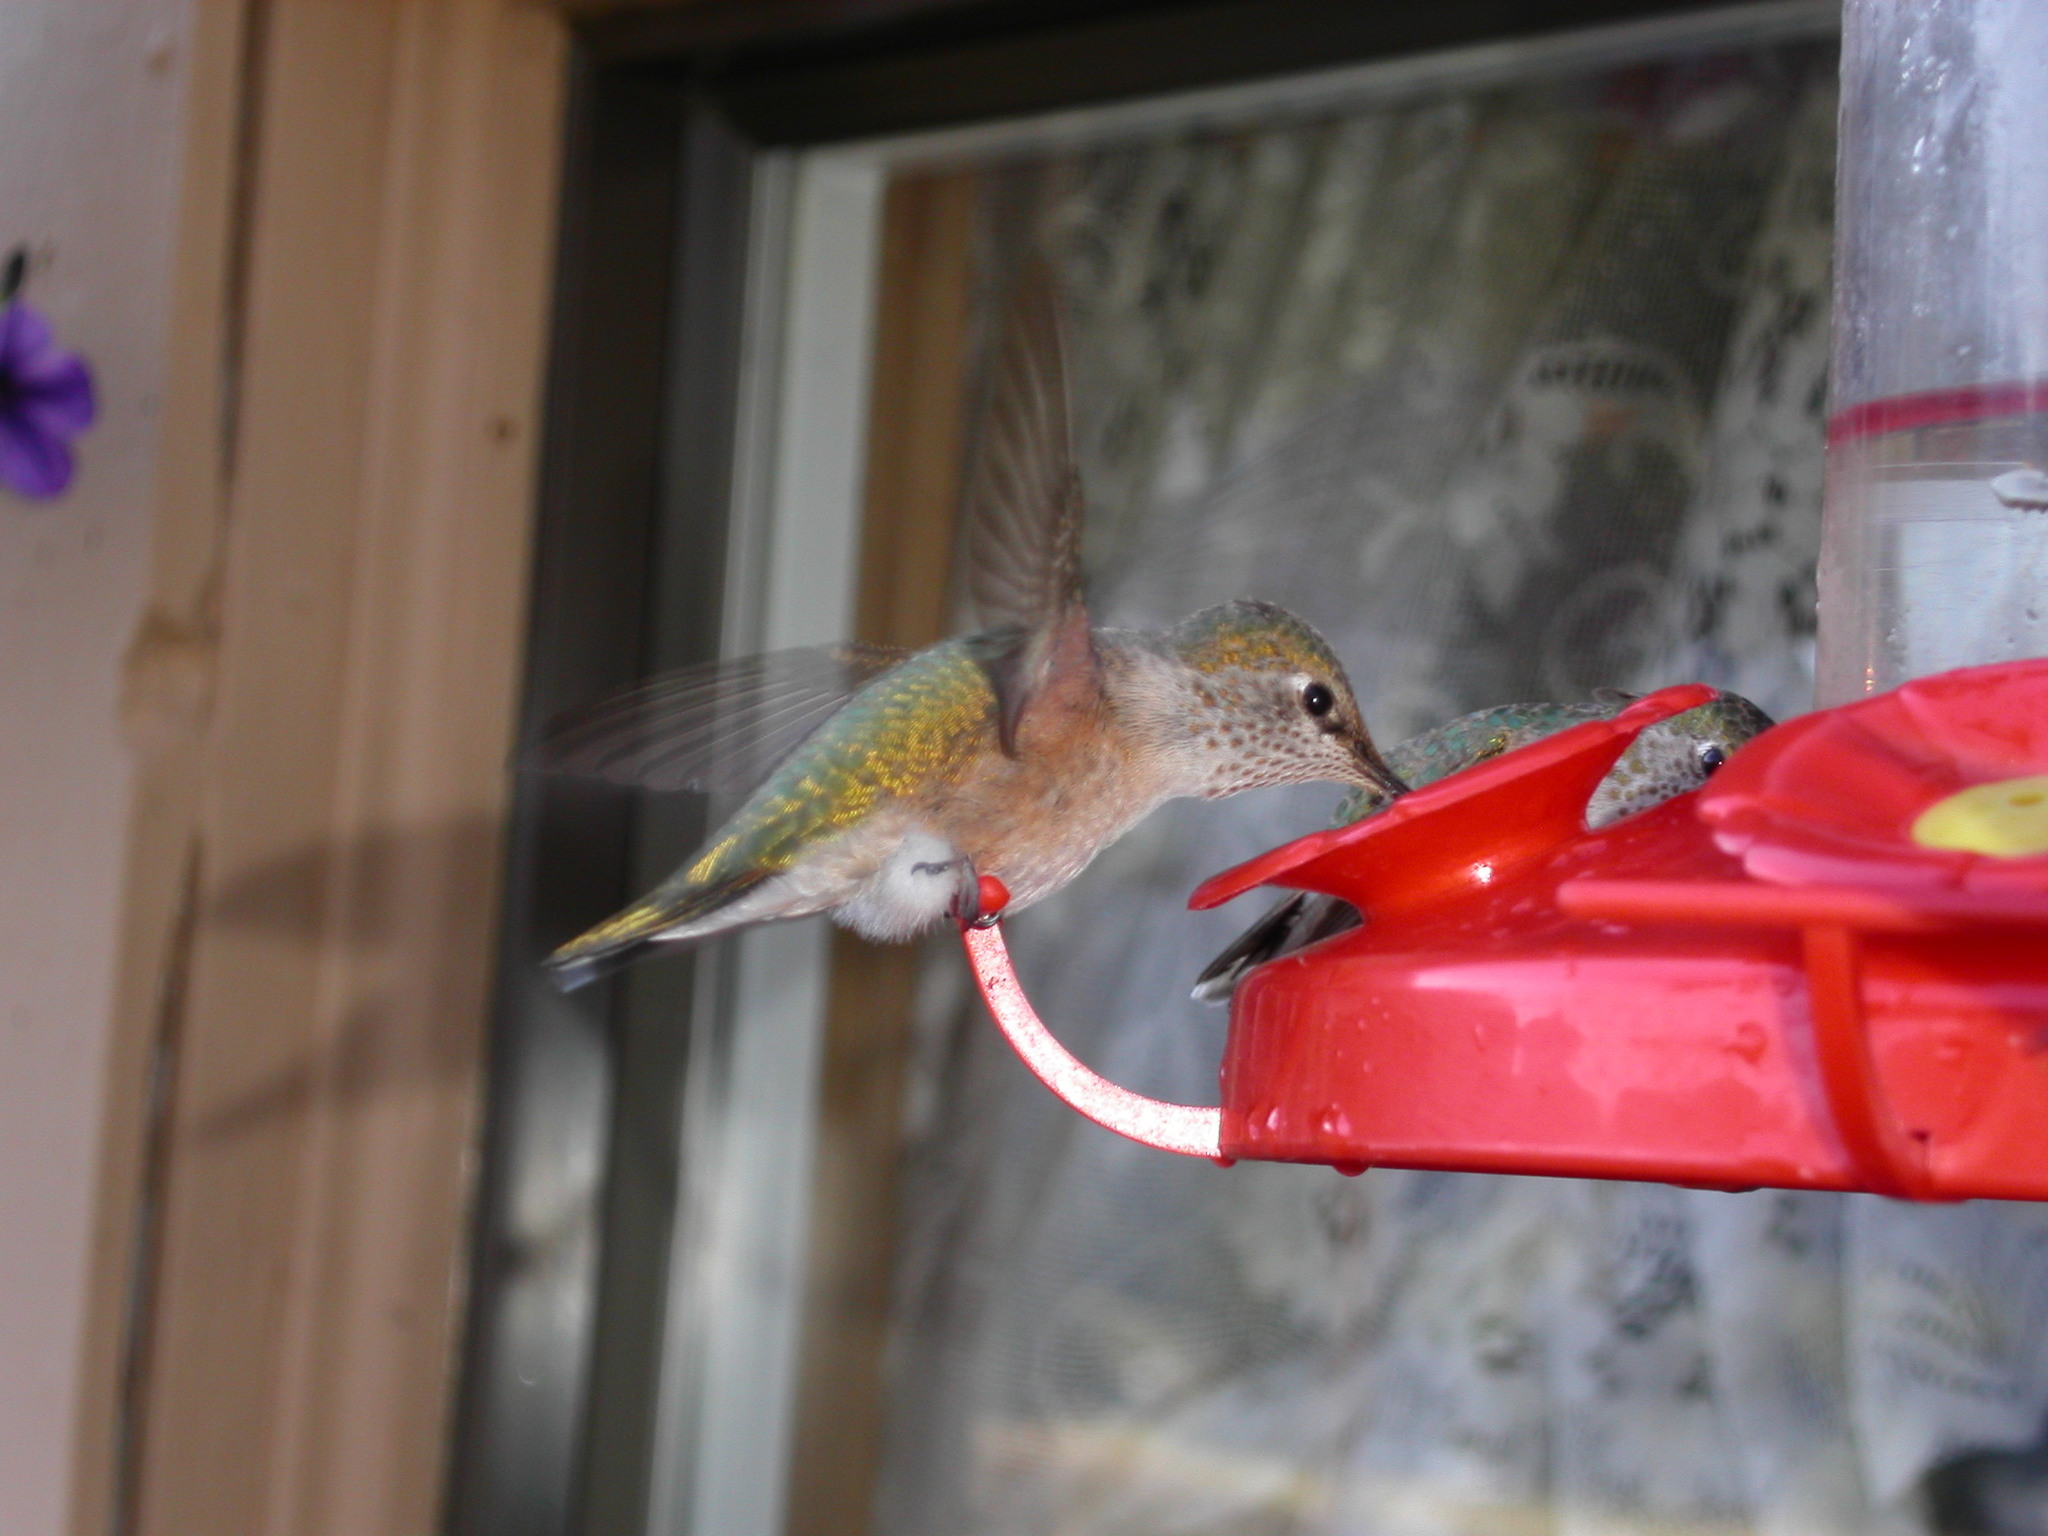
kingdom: Animalia
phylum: Chordata
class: Aves
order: Apodiformes
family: Trochilidae
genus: Selasphorus
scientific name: Selasphorus platycercus
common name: Broad-tailed hummingbird
